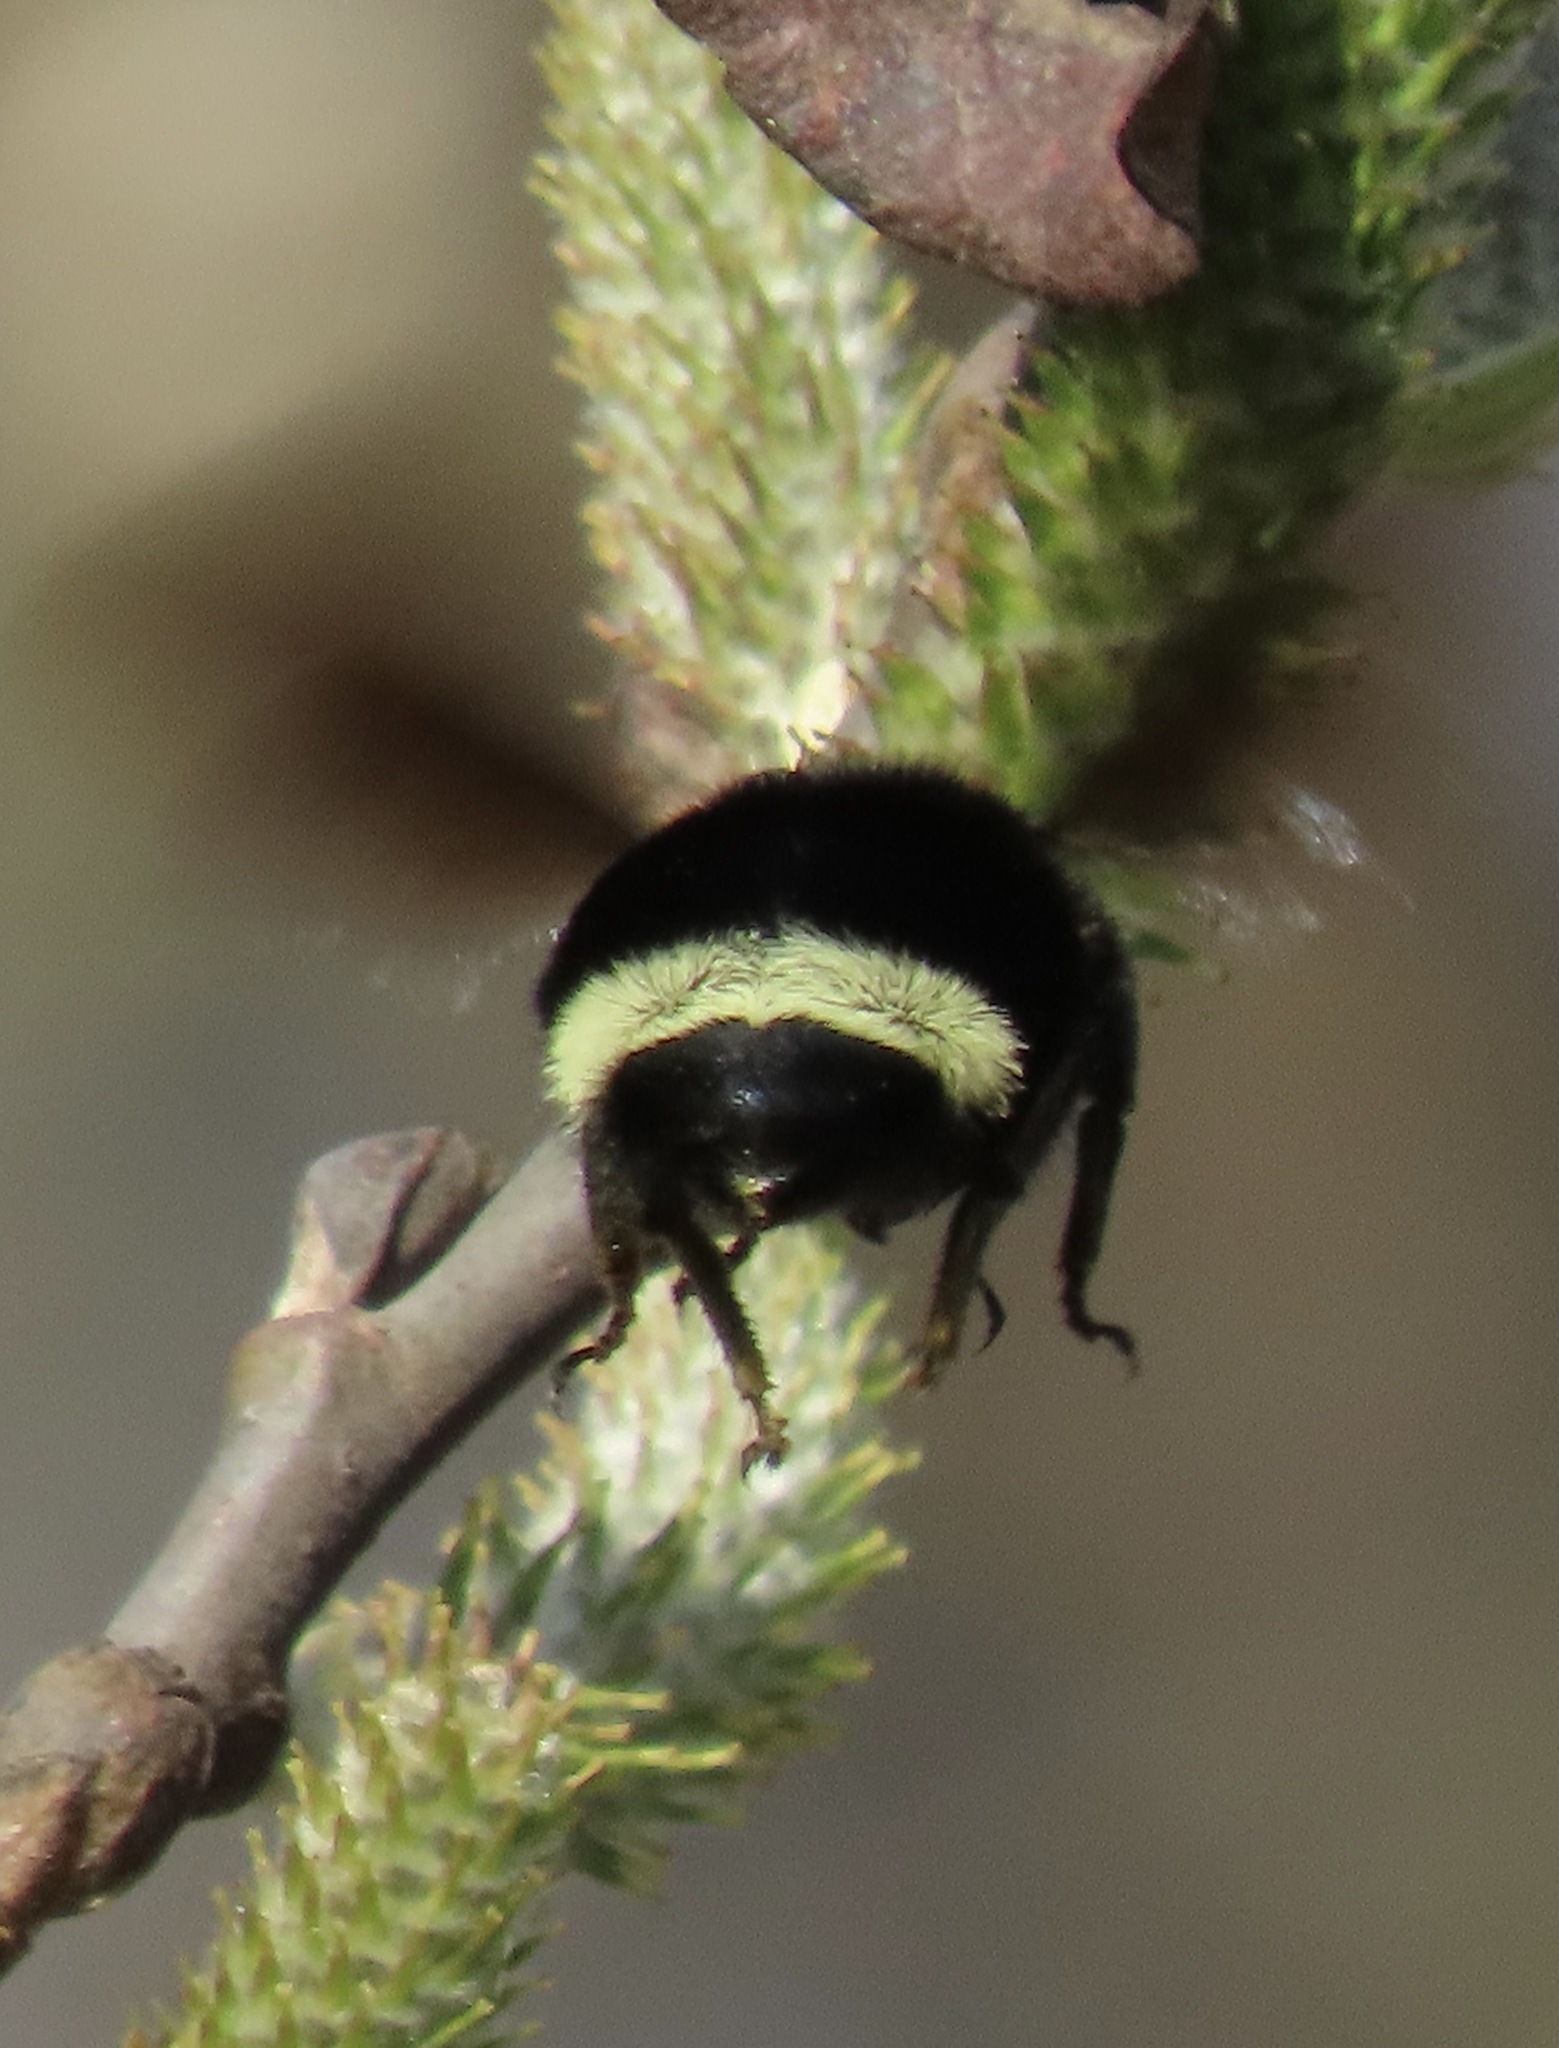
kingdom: Animalia
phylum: Arthropoda
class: Insecta
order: Hymenoptera
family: Apidae
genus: Bombus
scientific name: Bombus vosnesenskii
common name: Vosnesensky bumble bee
